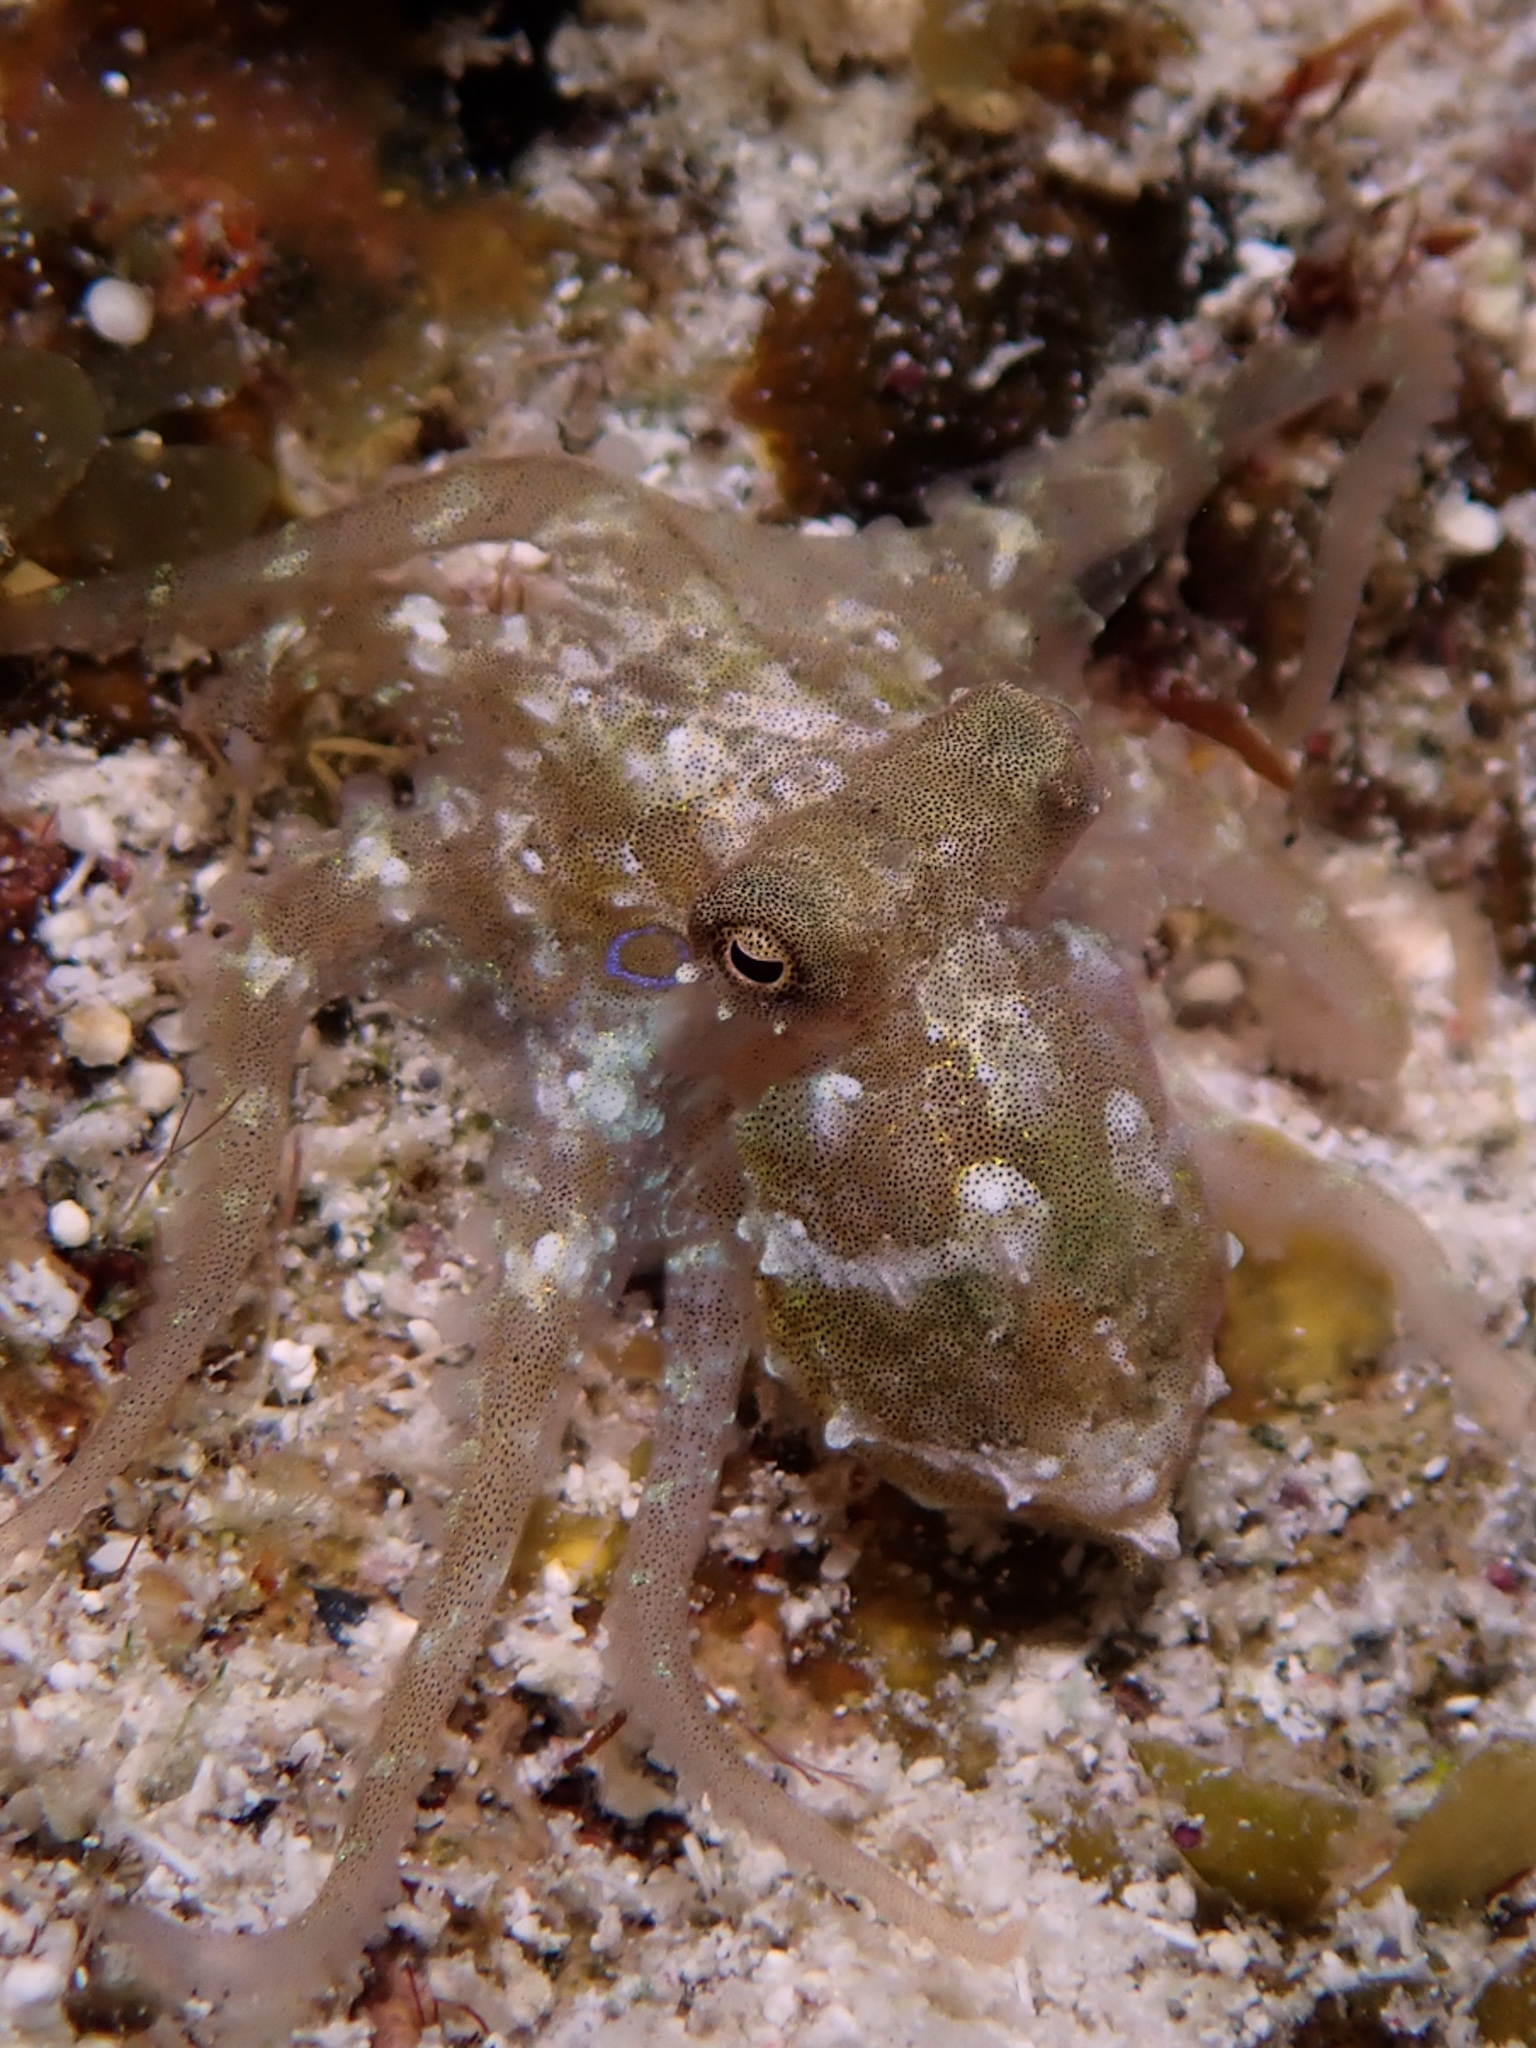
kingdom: Animalia
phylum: Mollusca
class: Cephalopoda
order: Octopoda
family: Octopodidae
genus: Octopus
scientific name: Octopus hummelincki
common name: Caribbean two-spot octopus
